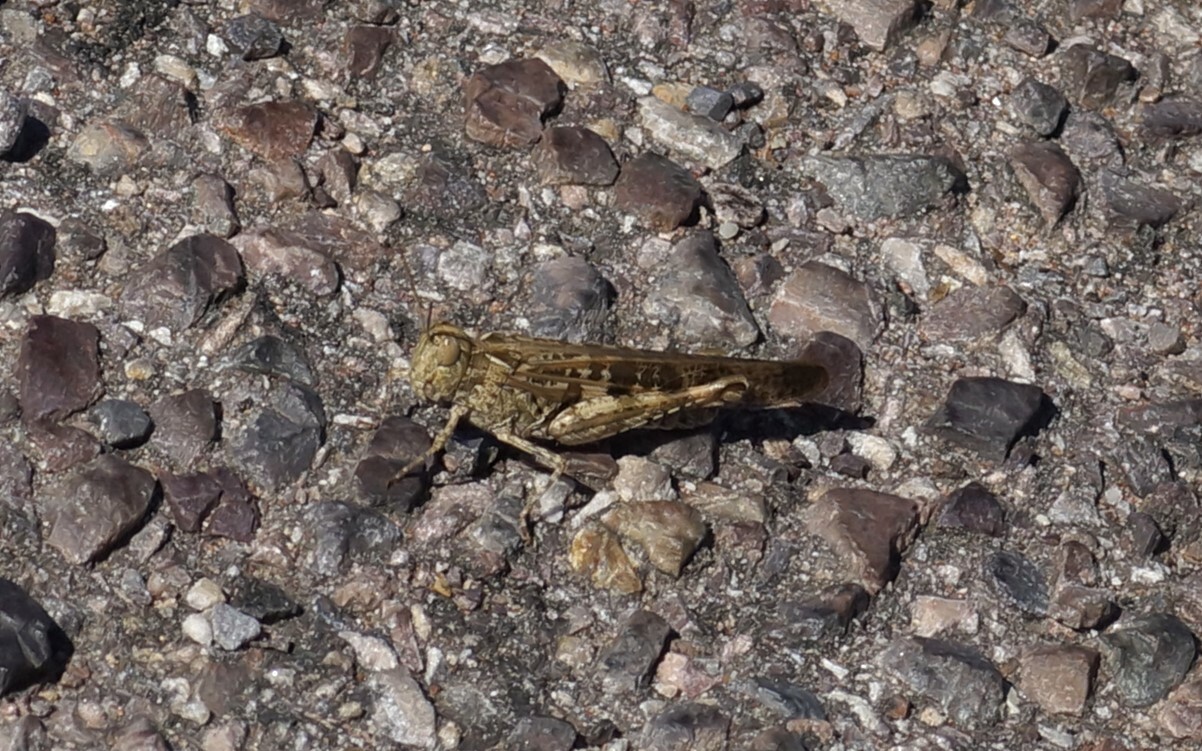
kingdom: Animalia
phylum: Arthropoda
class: Insecta
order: Orthoptera
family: Acrididae
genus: Chortoicetes
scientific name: Chortoicetes terminifera
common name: Australian plague locust
